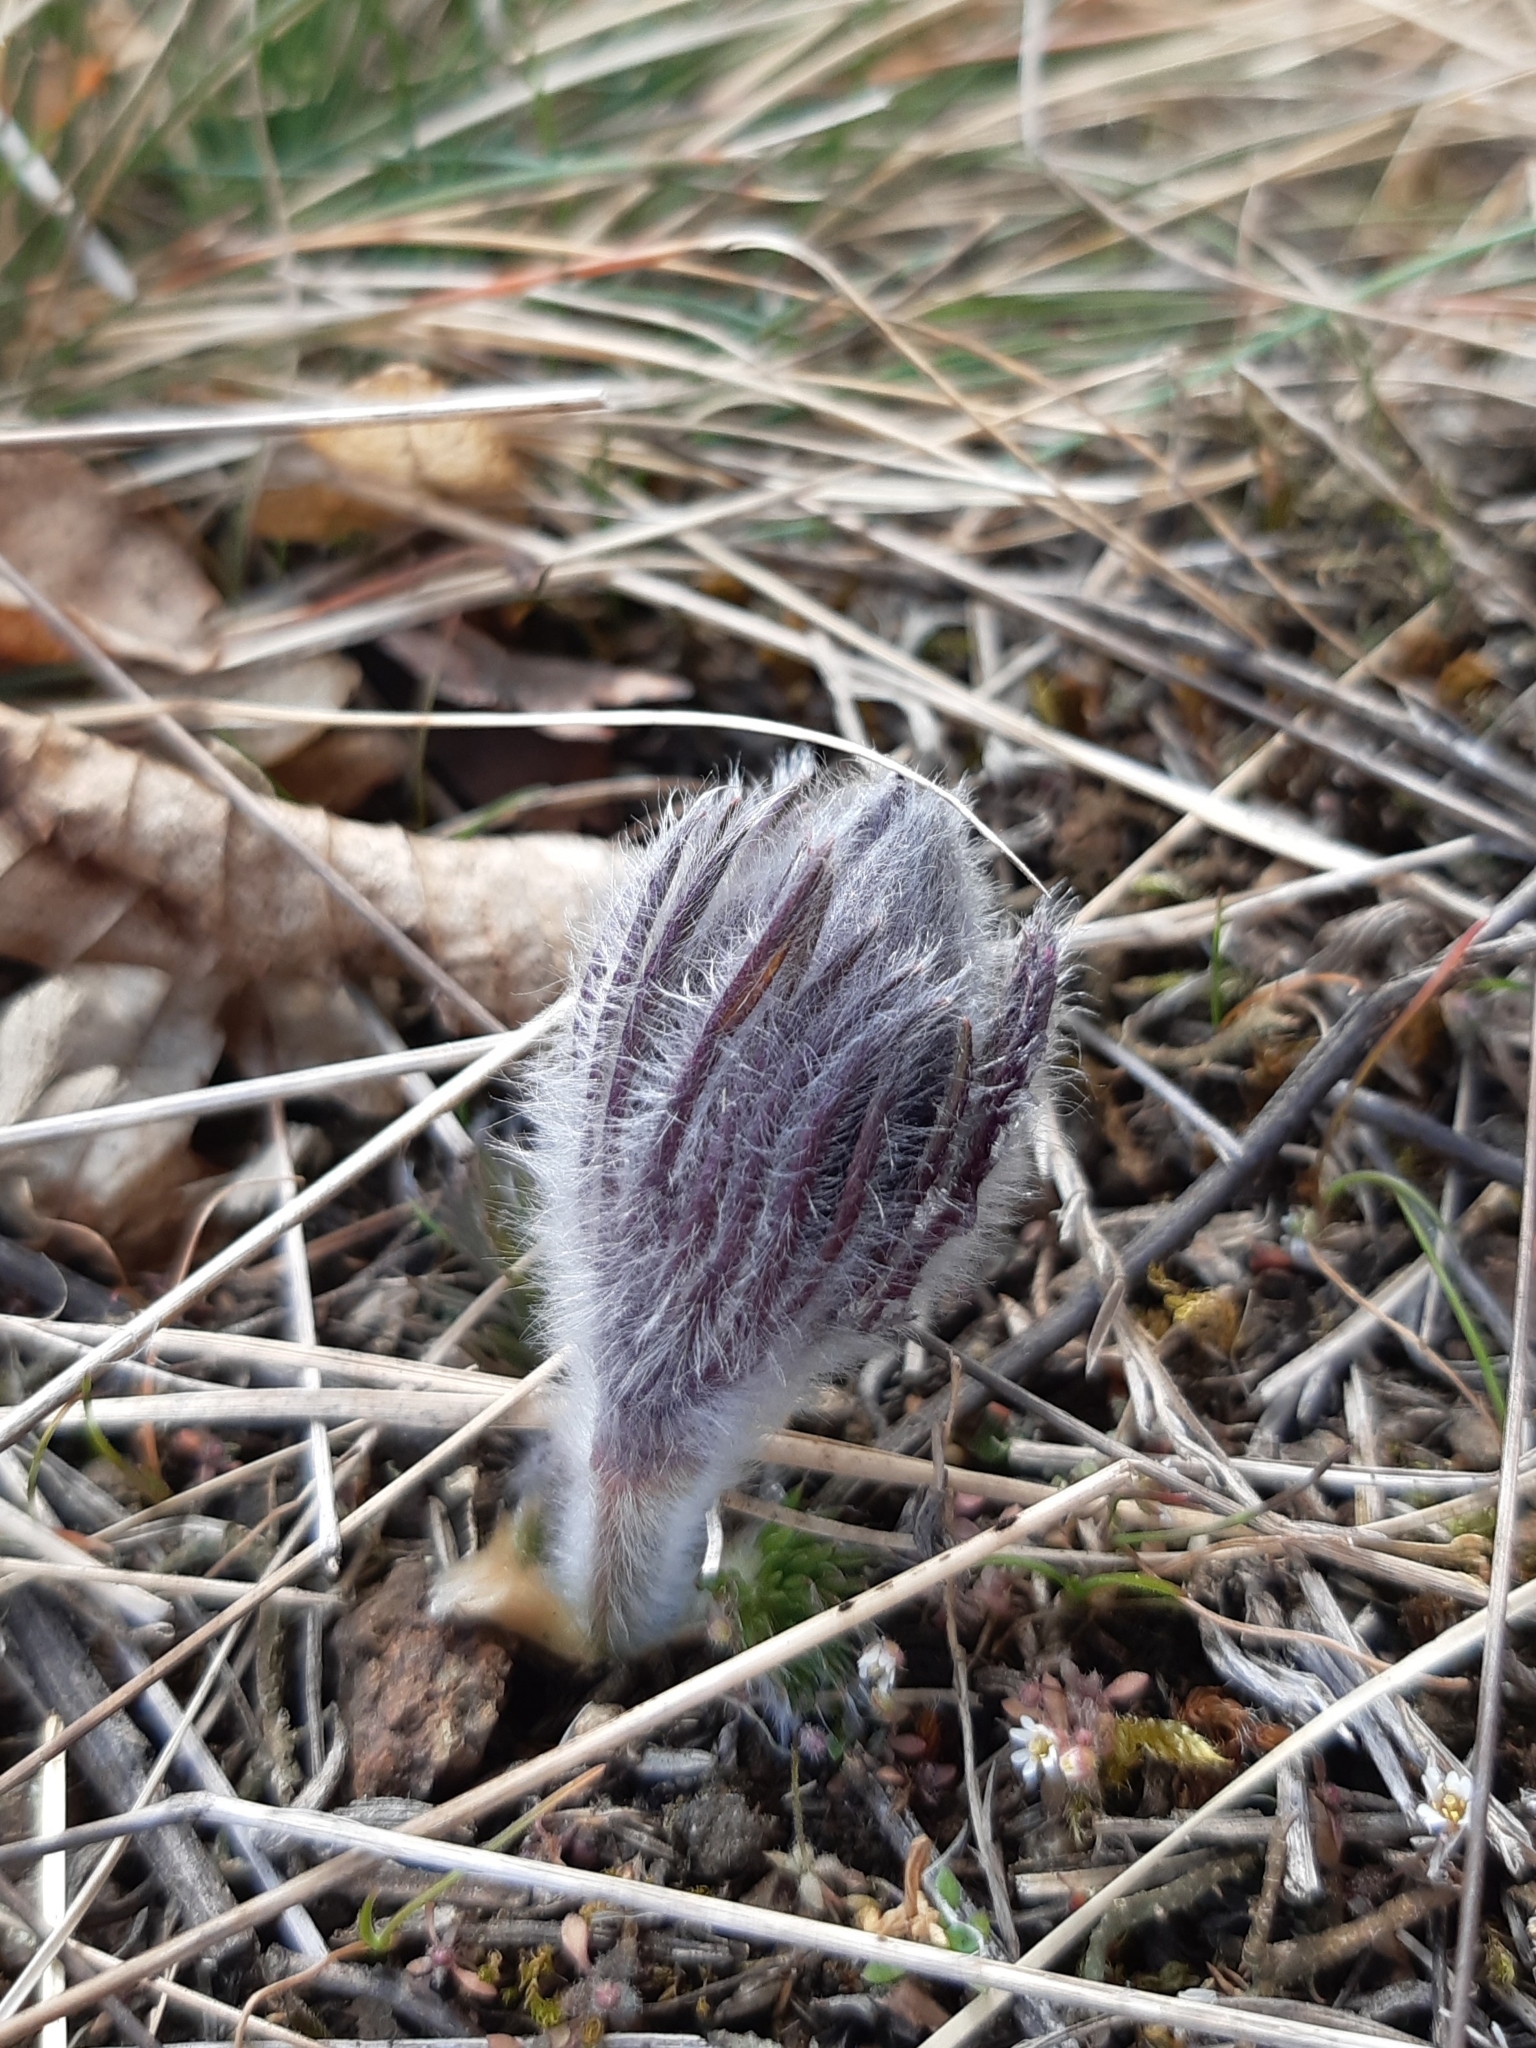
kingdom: Plantae
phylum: Tracheophyta
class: Magnoliopsida
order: Ranunculales
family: Ranunculaceae
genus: Pulsatilla
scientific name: Pulsatilla pratensis
